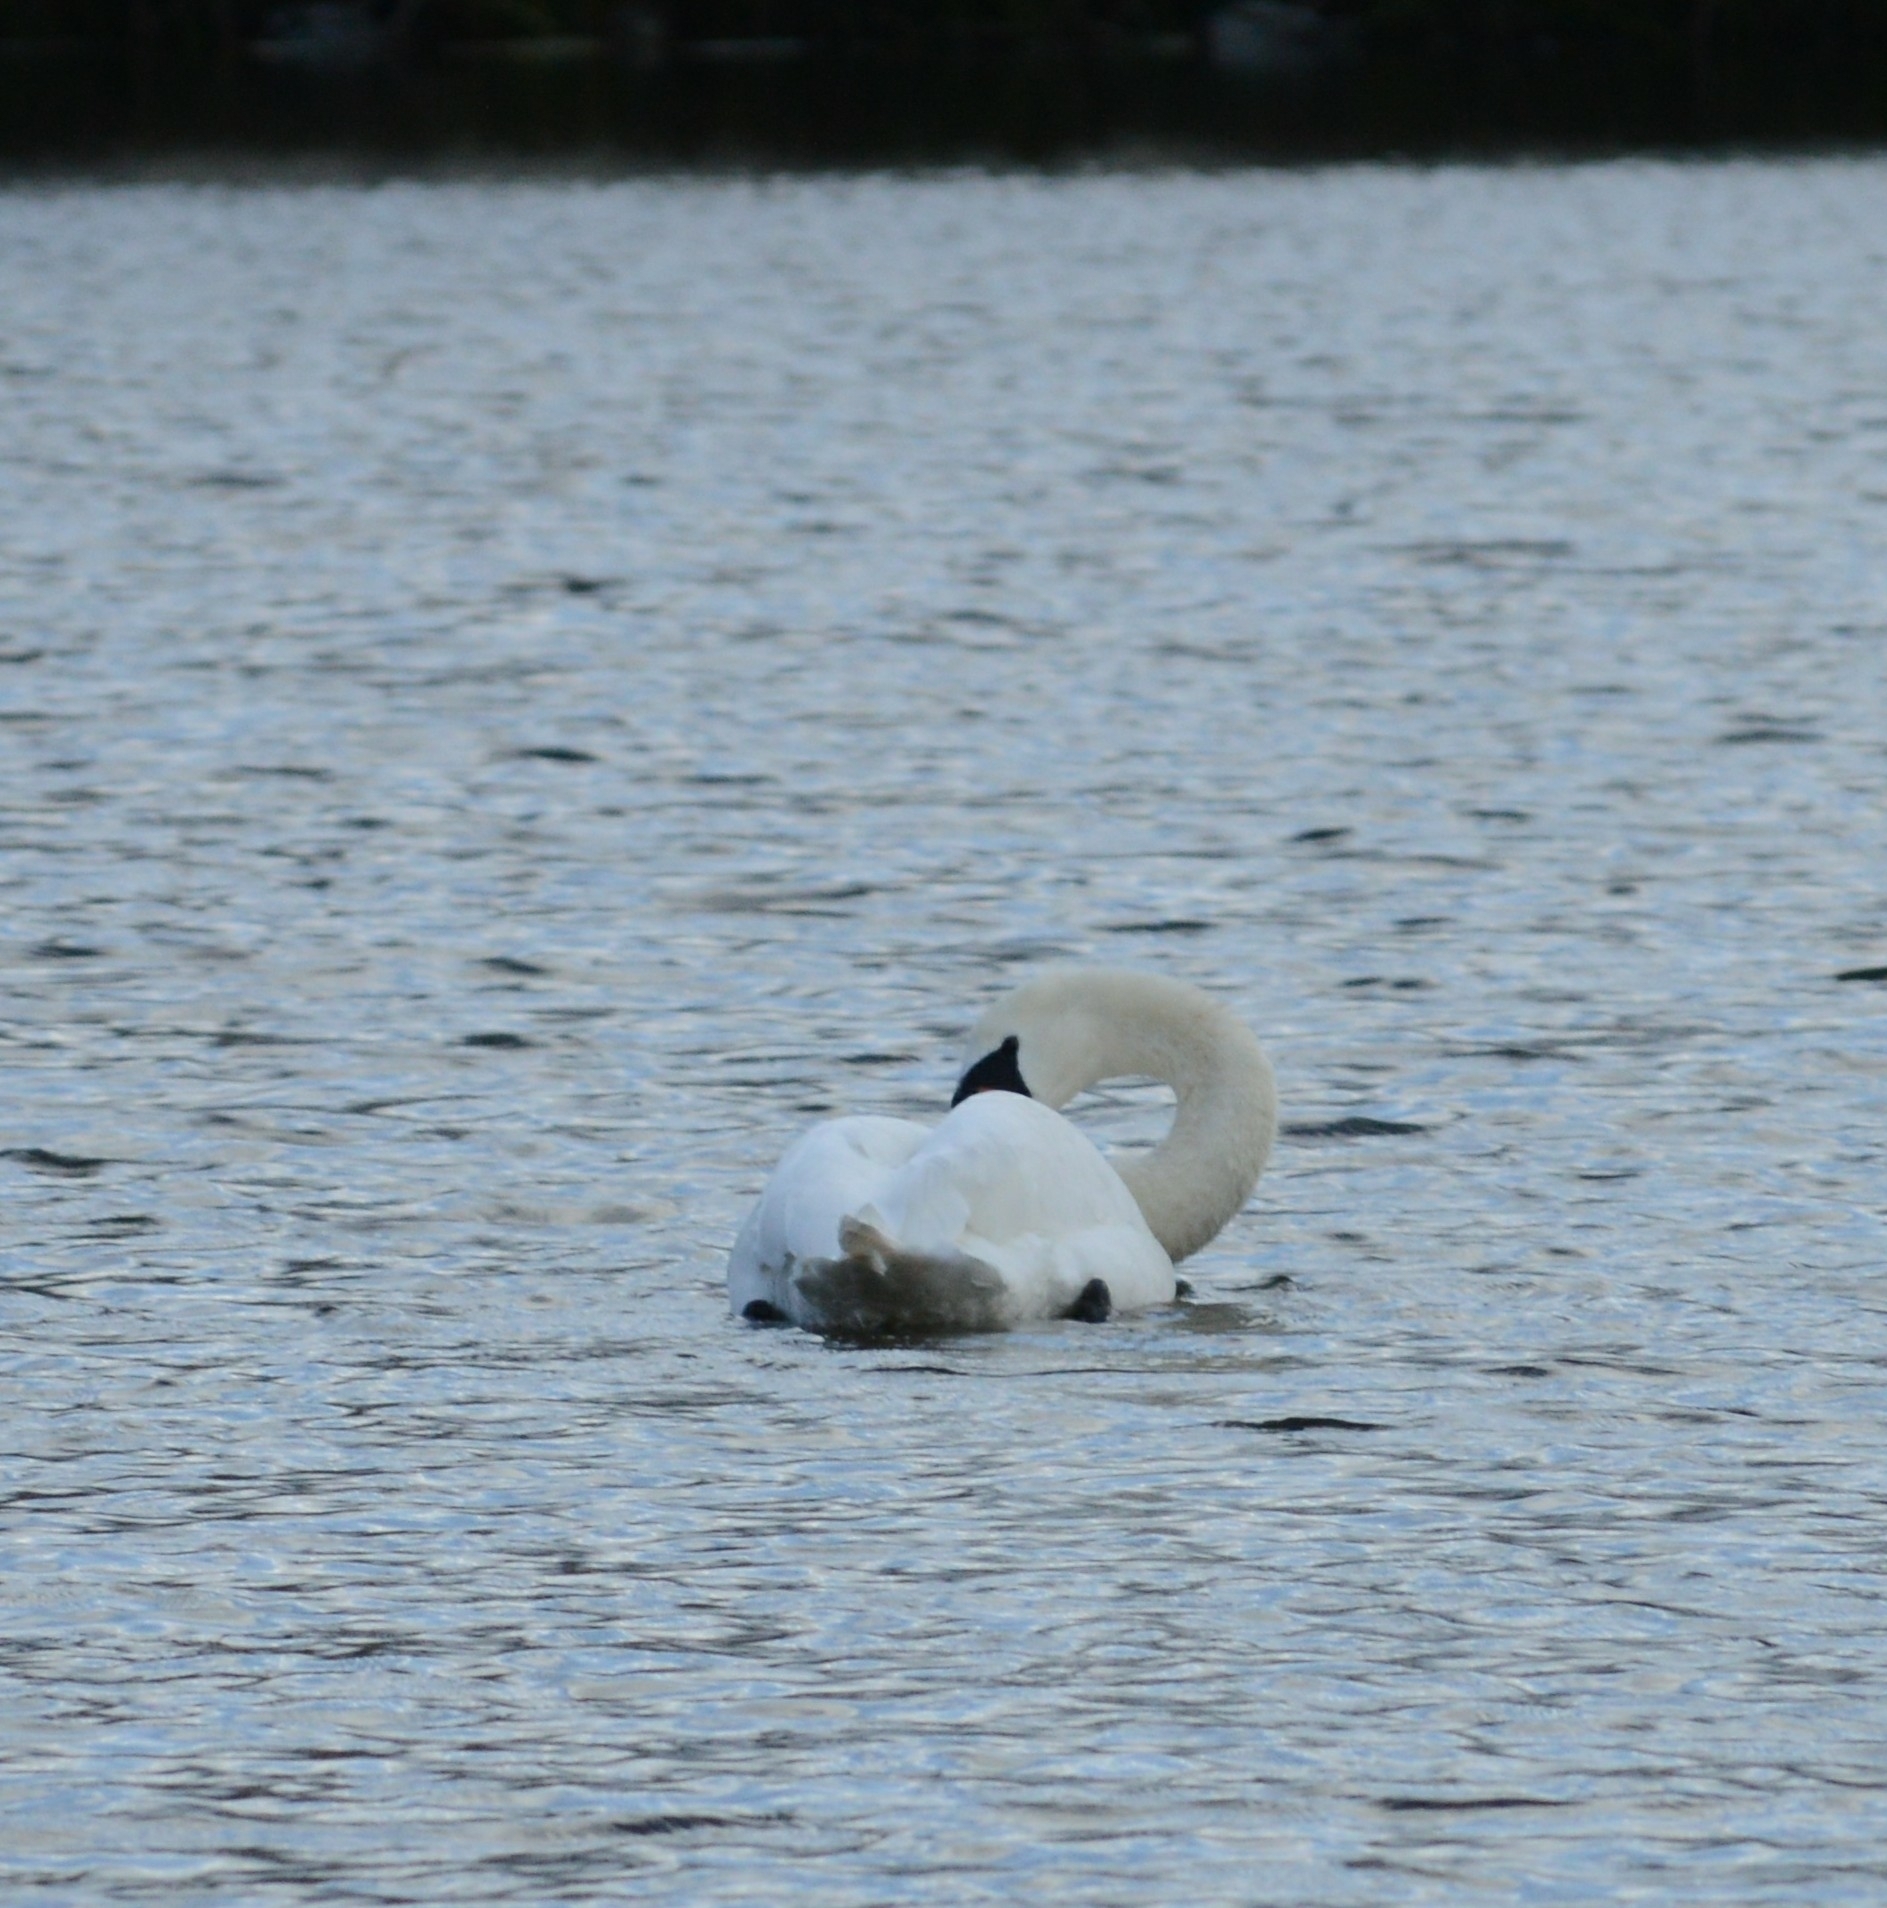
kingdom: Animalia
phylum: Chordata
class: Aves
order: Anseriformes
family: Anatidae
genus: Cygnus
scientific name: Cygnus olor
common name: Mute swan
